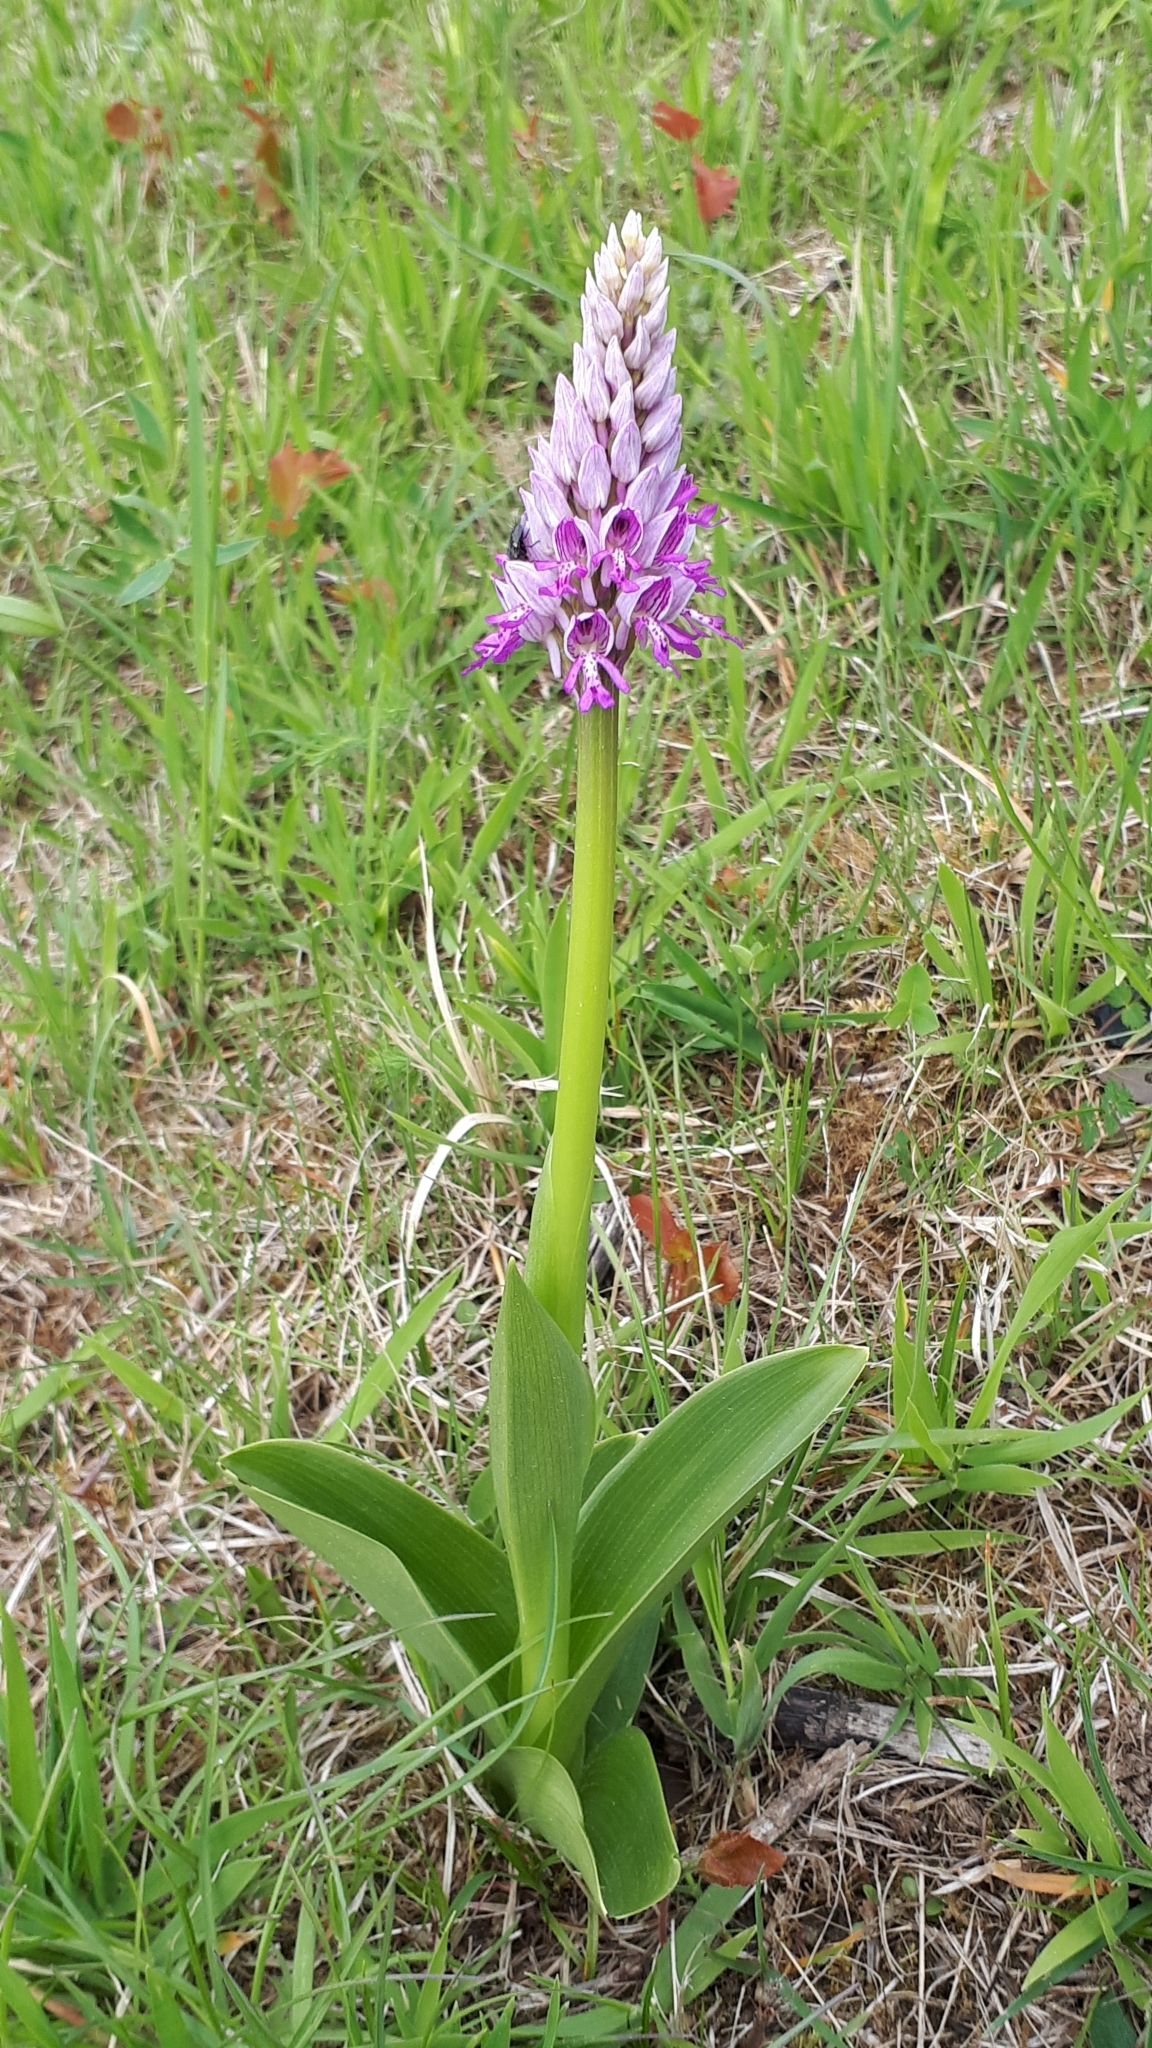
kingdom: Plantae
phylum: Tracheophyta
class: Liliopsida
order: Asparagales
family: Orchidaceae
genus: Orchis
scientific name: Orchis militaris
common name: Military orchid
